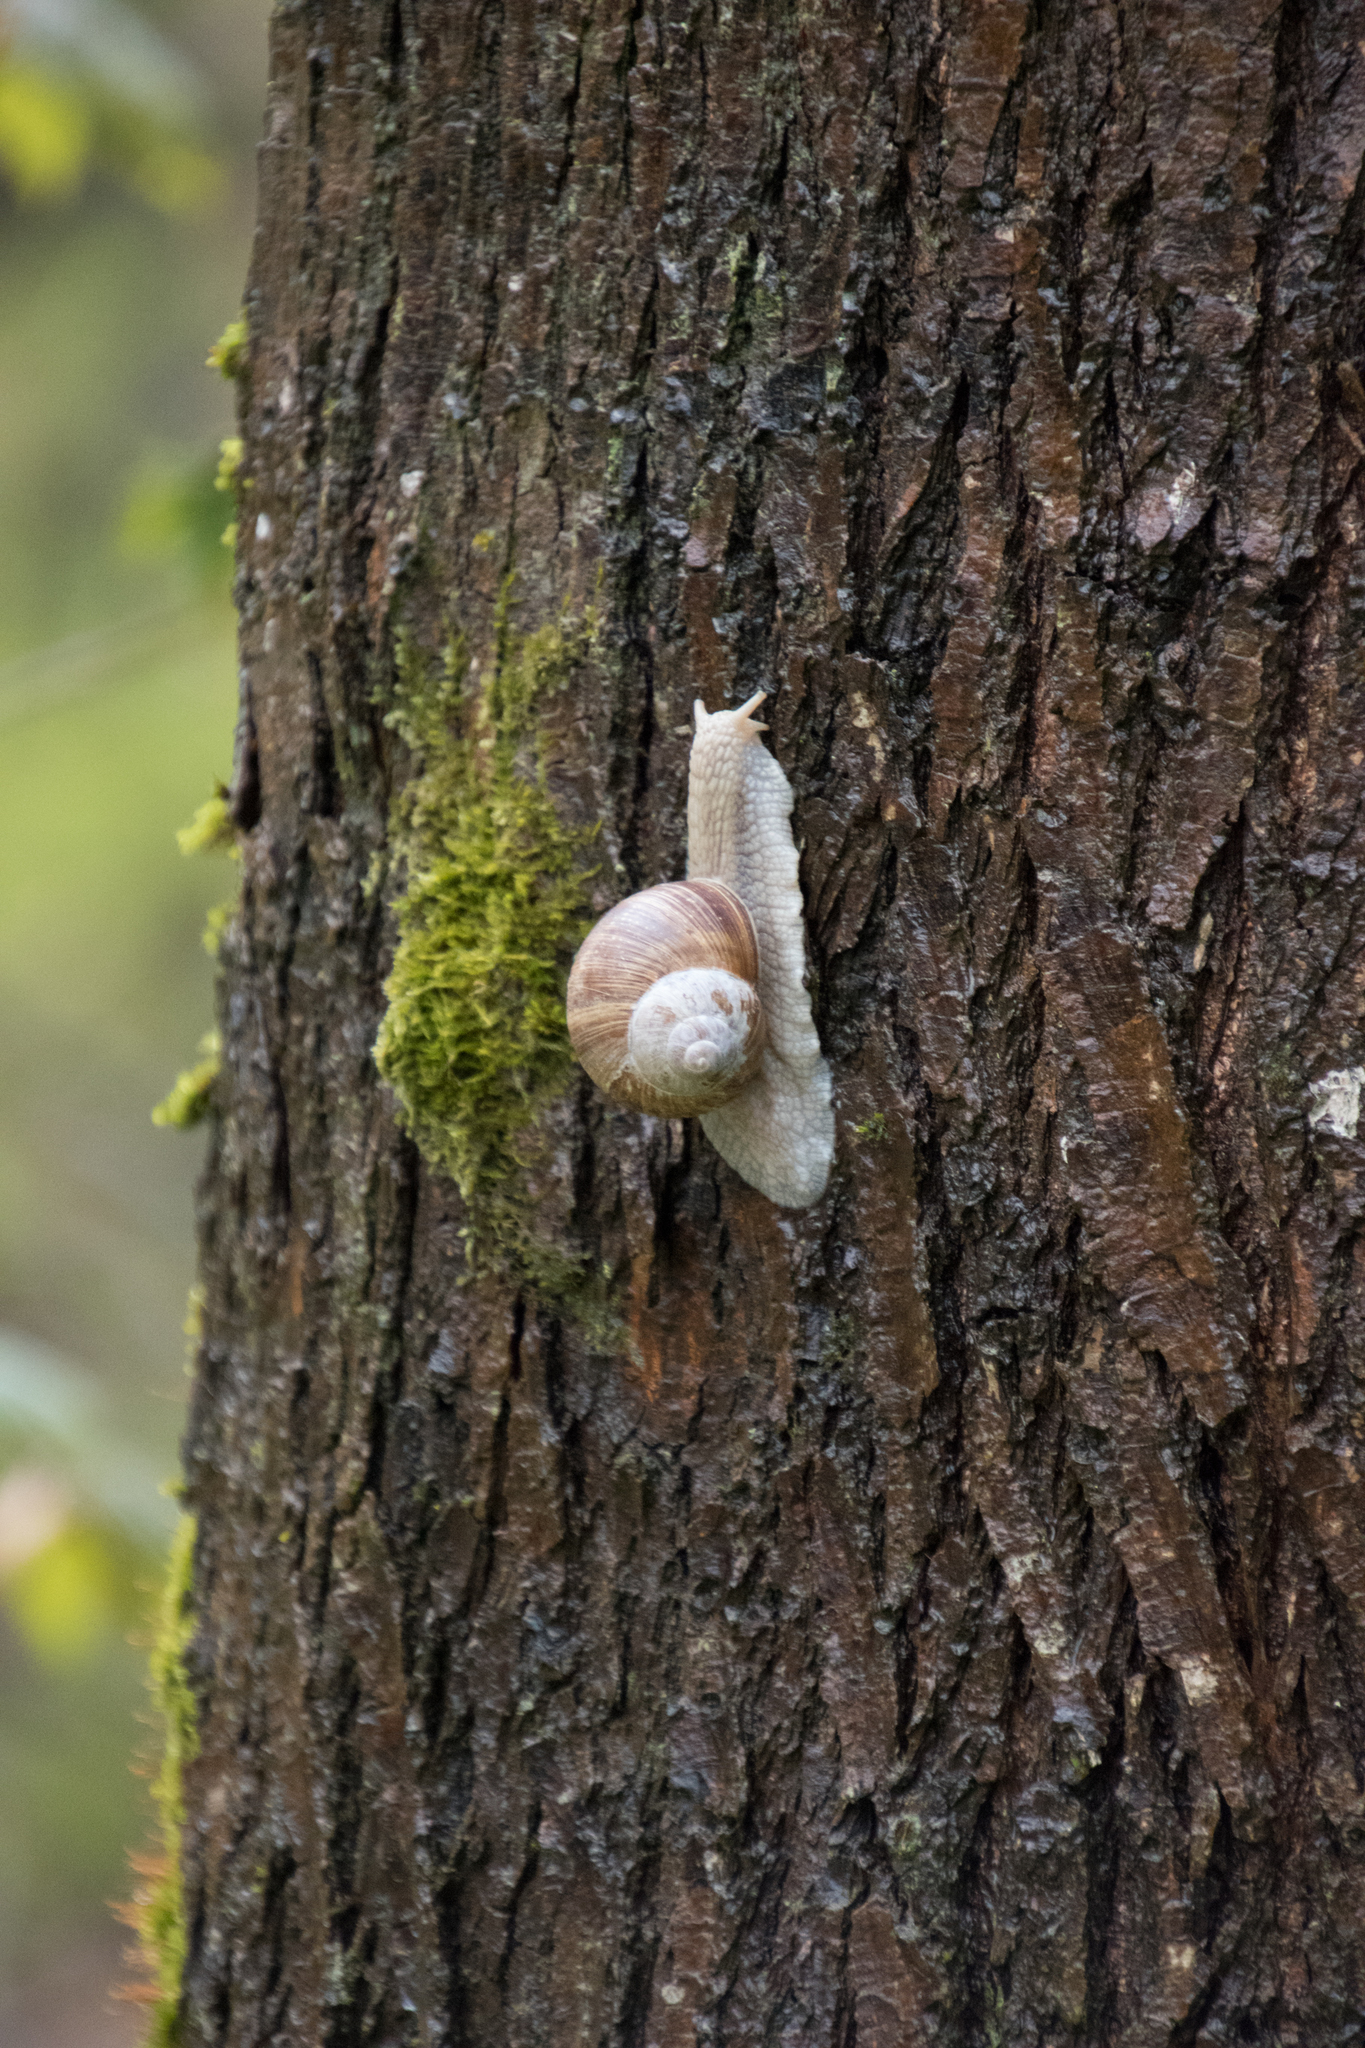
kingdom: Animalia
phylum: Mollusca
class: Gastropoda
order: Stylommatophora
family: Helicidae
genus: Helix
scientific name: Helix pomatia
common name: Roman snail
